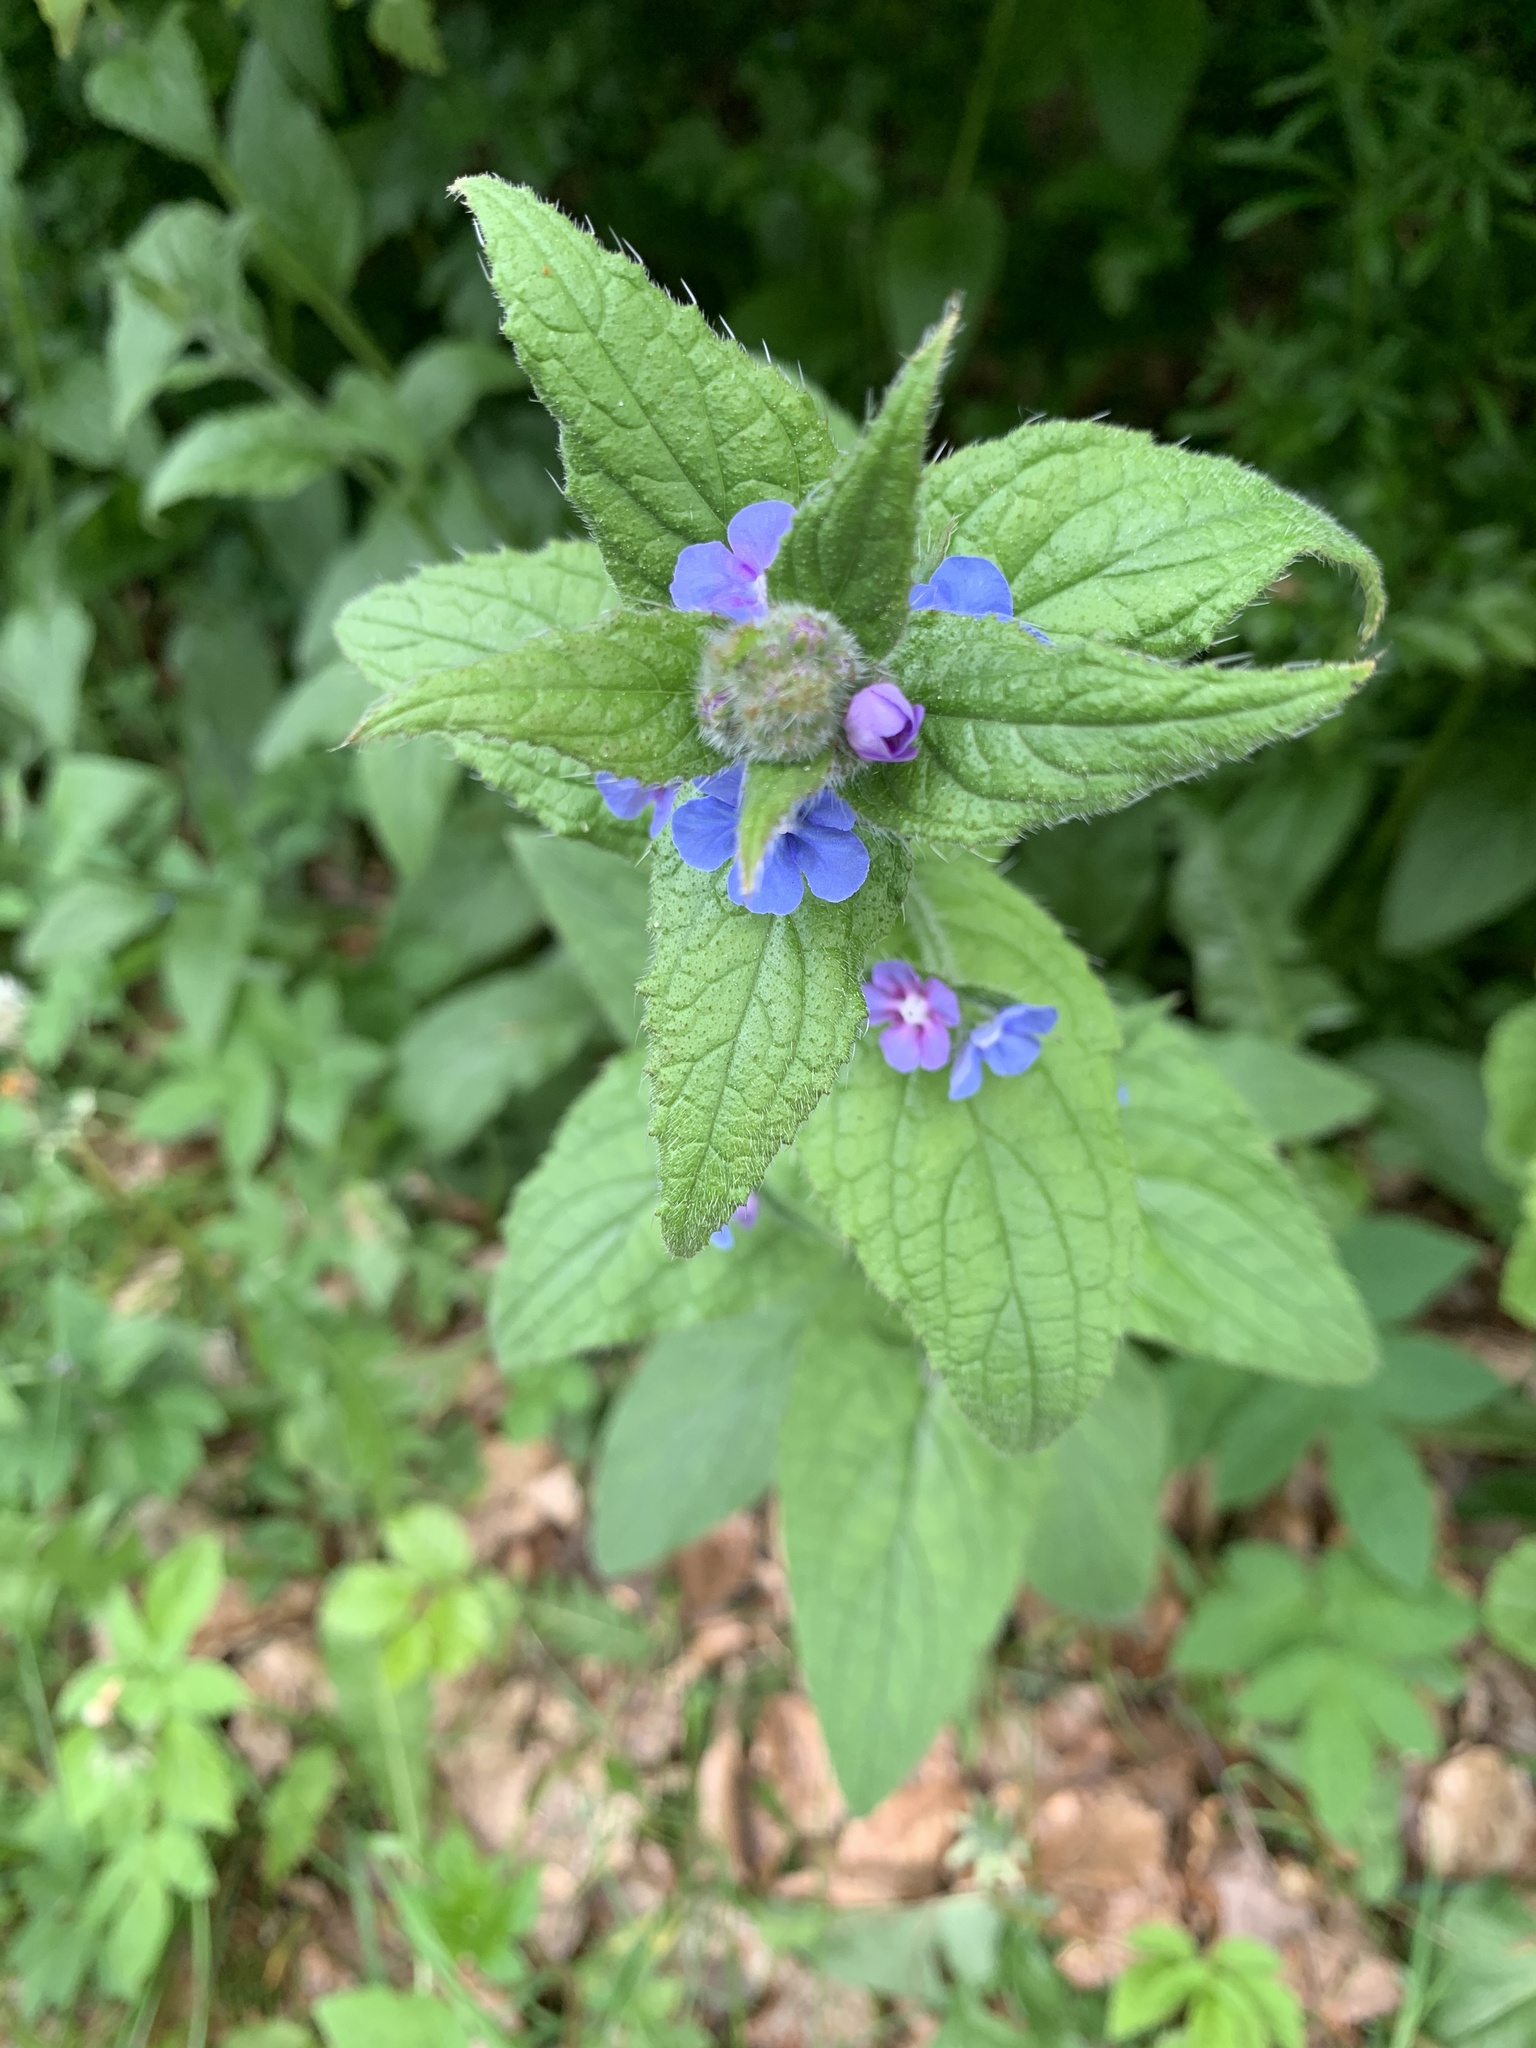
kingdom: Plantae
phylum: Tracheophyta
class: Magnoliopsida
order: Boraginales
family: Boraginaceae
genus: Pentaglottis
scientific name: Pentaglottis sempervirens
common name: Green alkanet
